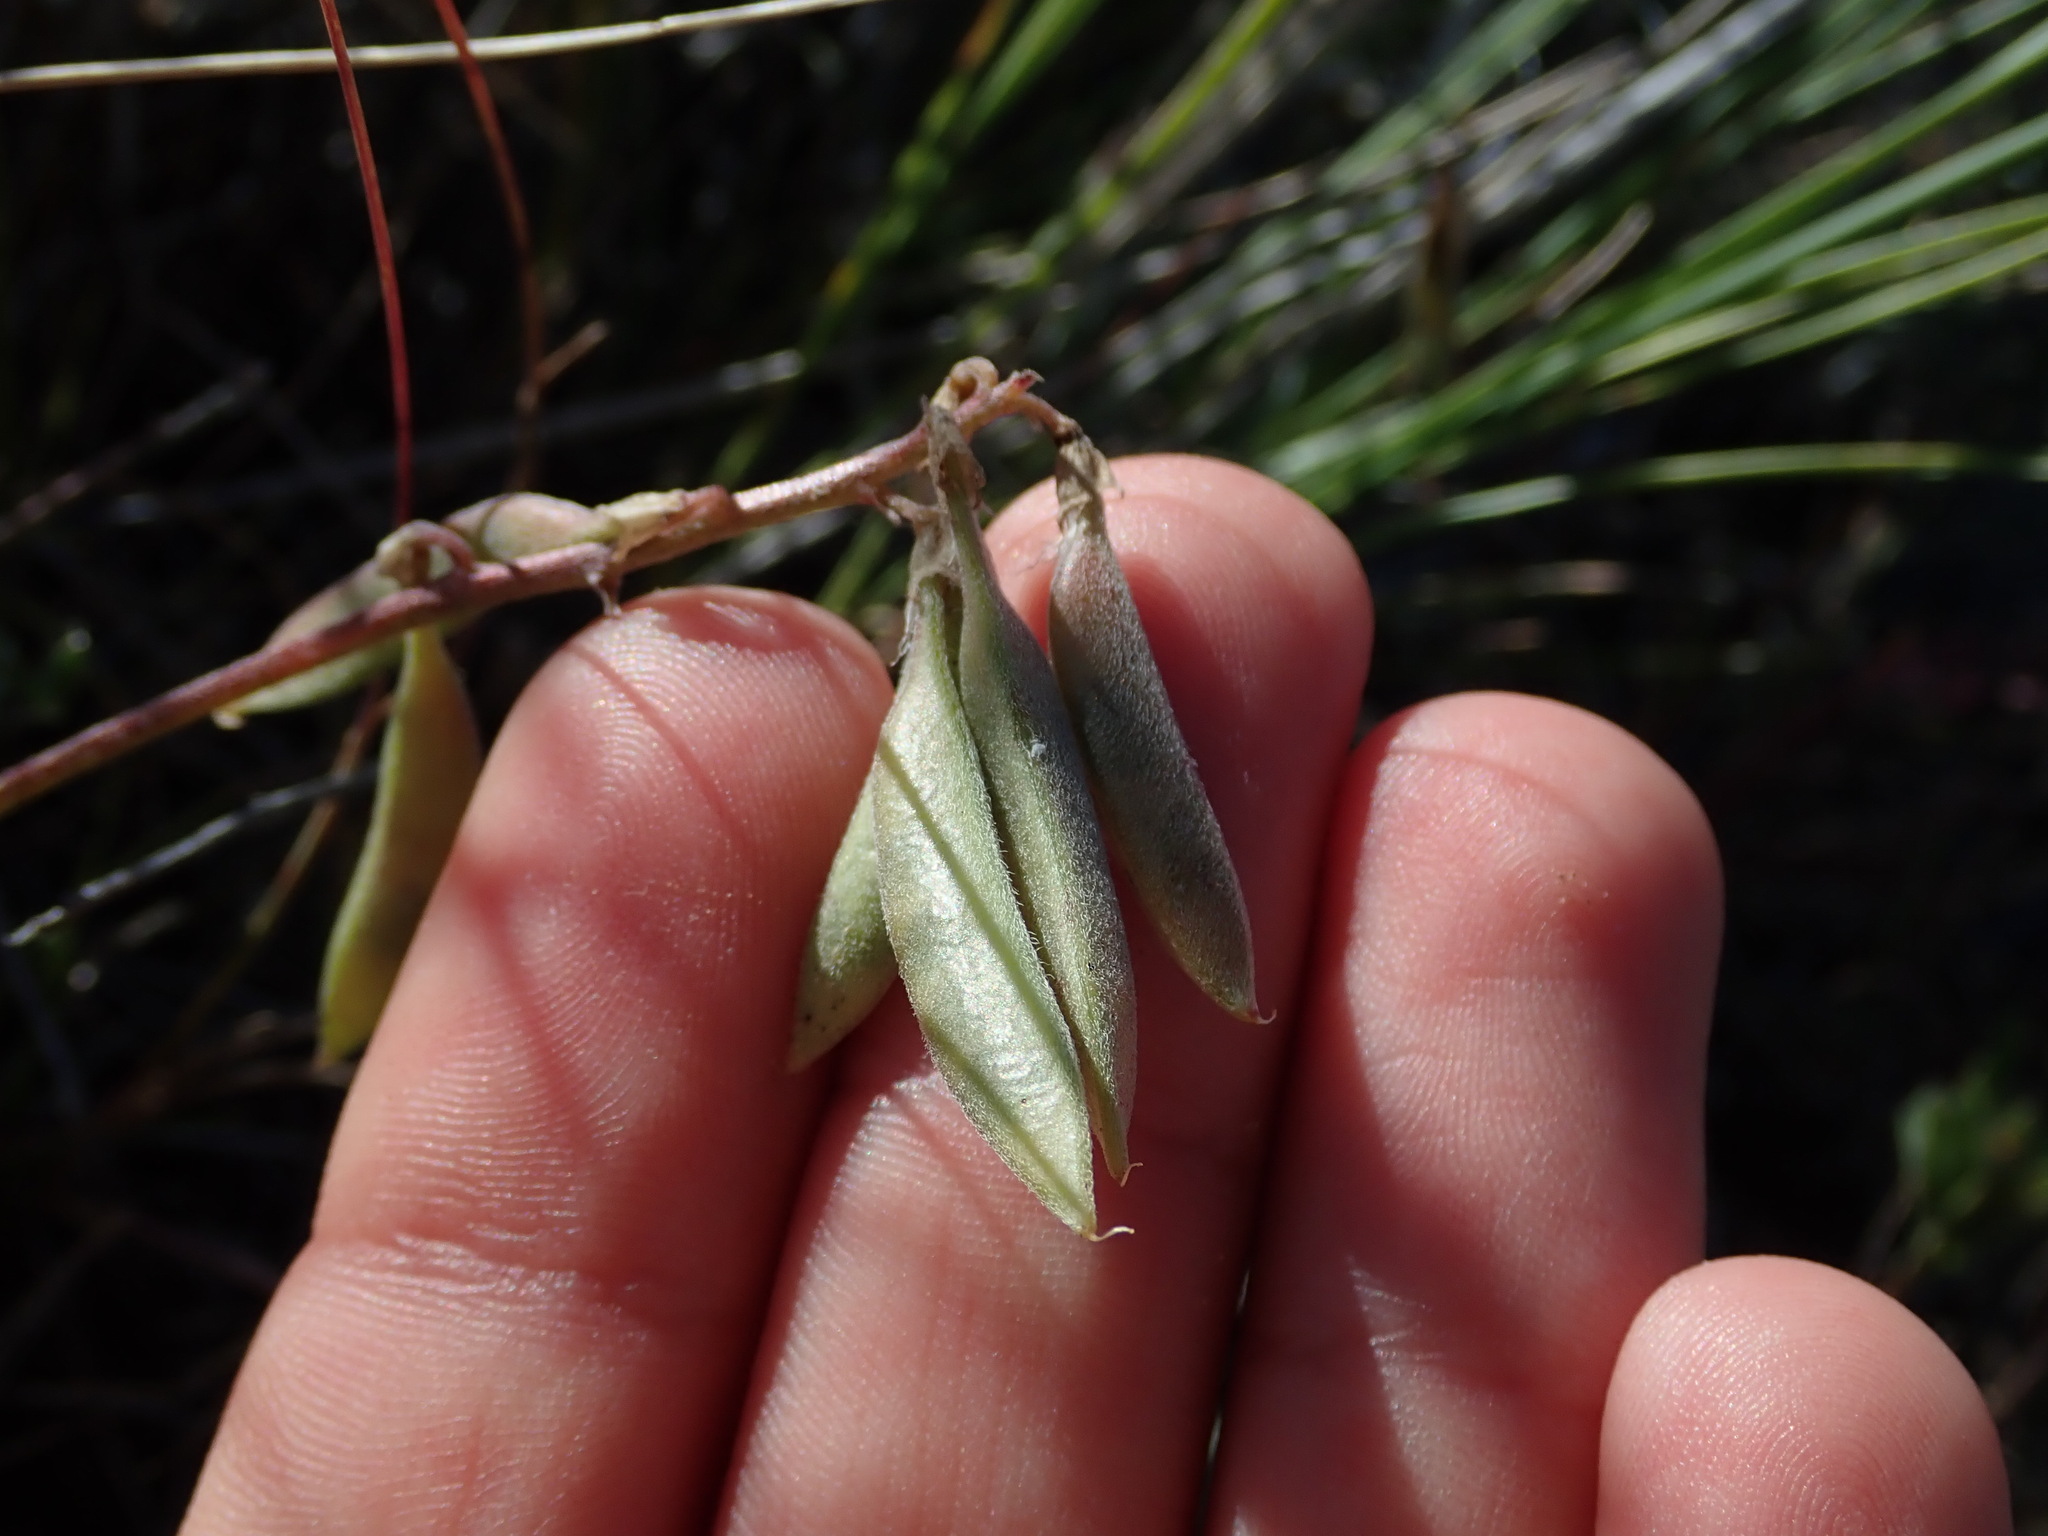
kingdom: Plantae
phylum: Tracheophyta
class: Magnoliopsida
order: Fabales
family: Fabaceae
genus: Astragalus
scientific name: Astragalus misellus
